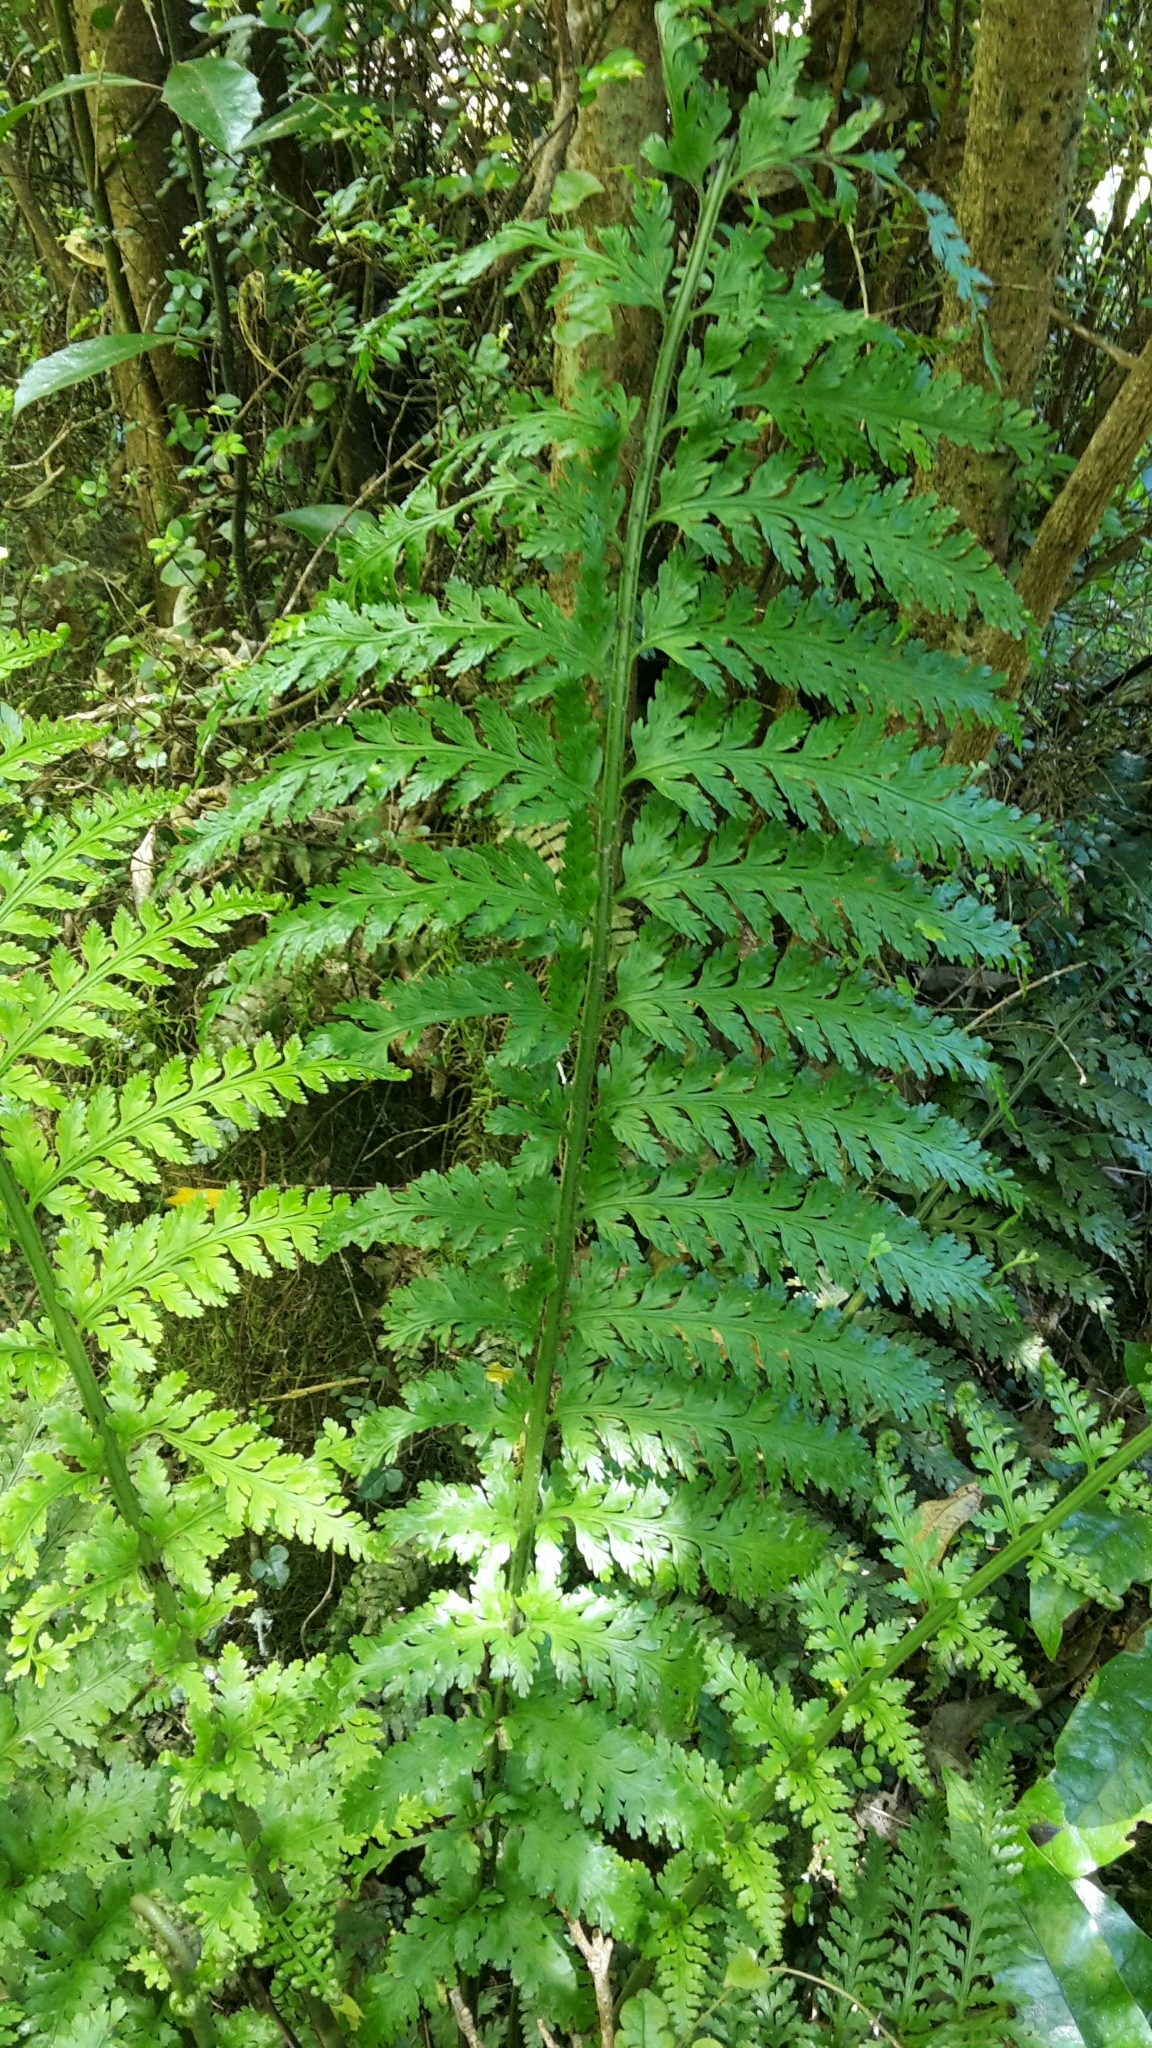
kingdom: Plantae
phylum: Tracheophyta
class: Polypodiopsida
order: Polypodiales
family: Aspleniaceae
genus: Asplenium
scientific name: Asplenium bulbiferum
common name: Mother fern
